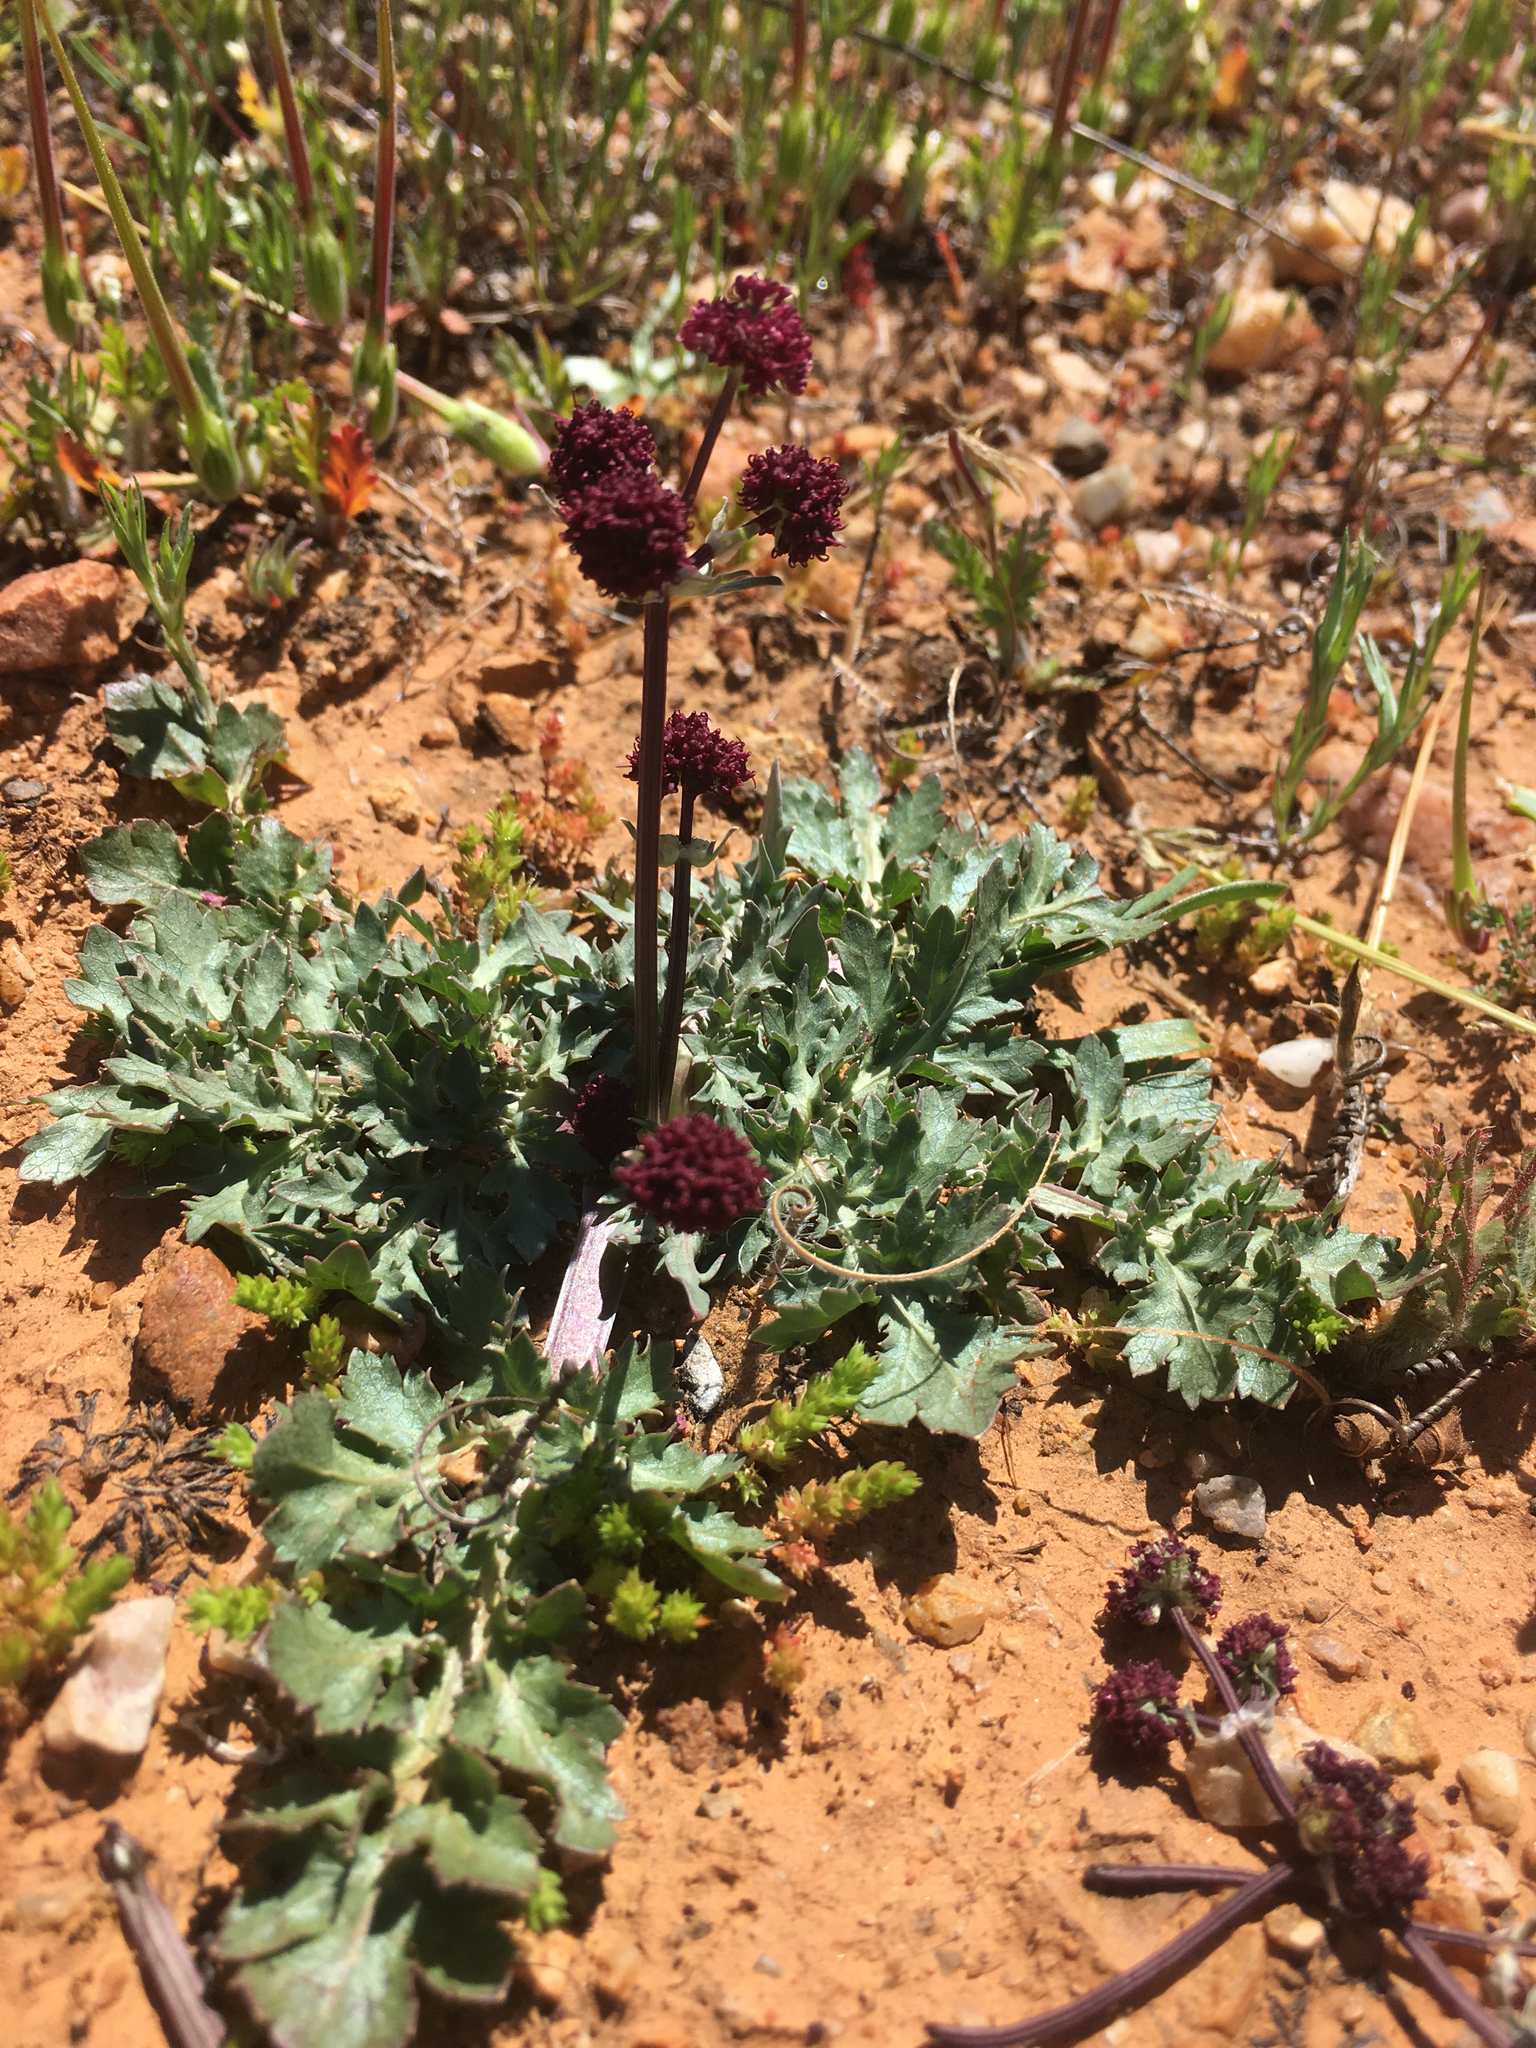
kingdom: Plantae
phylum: Tracheophyta
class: Magnoliopsida
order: Apiales
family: Apiaceae
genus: Sanicula
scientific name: Sanicula bipinnatifida
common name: Shoe-buttons
